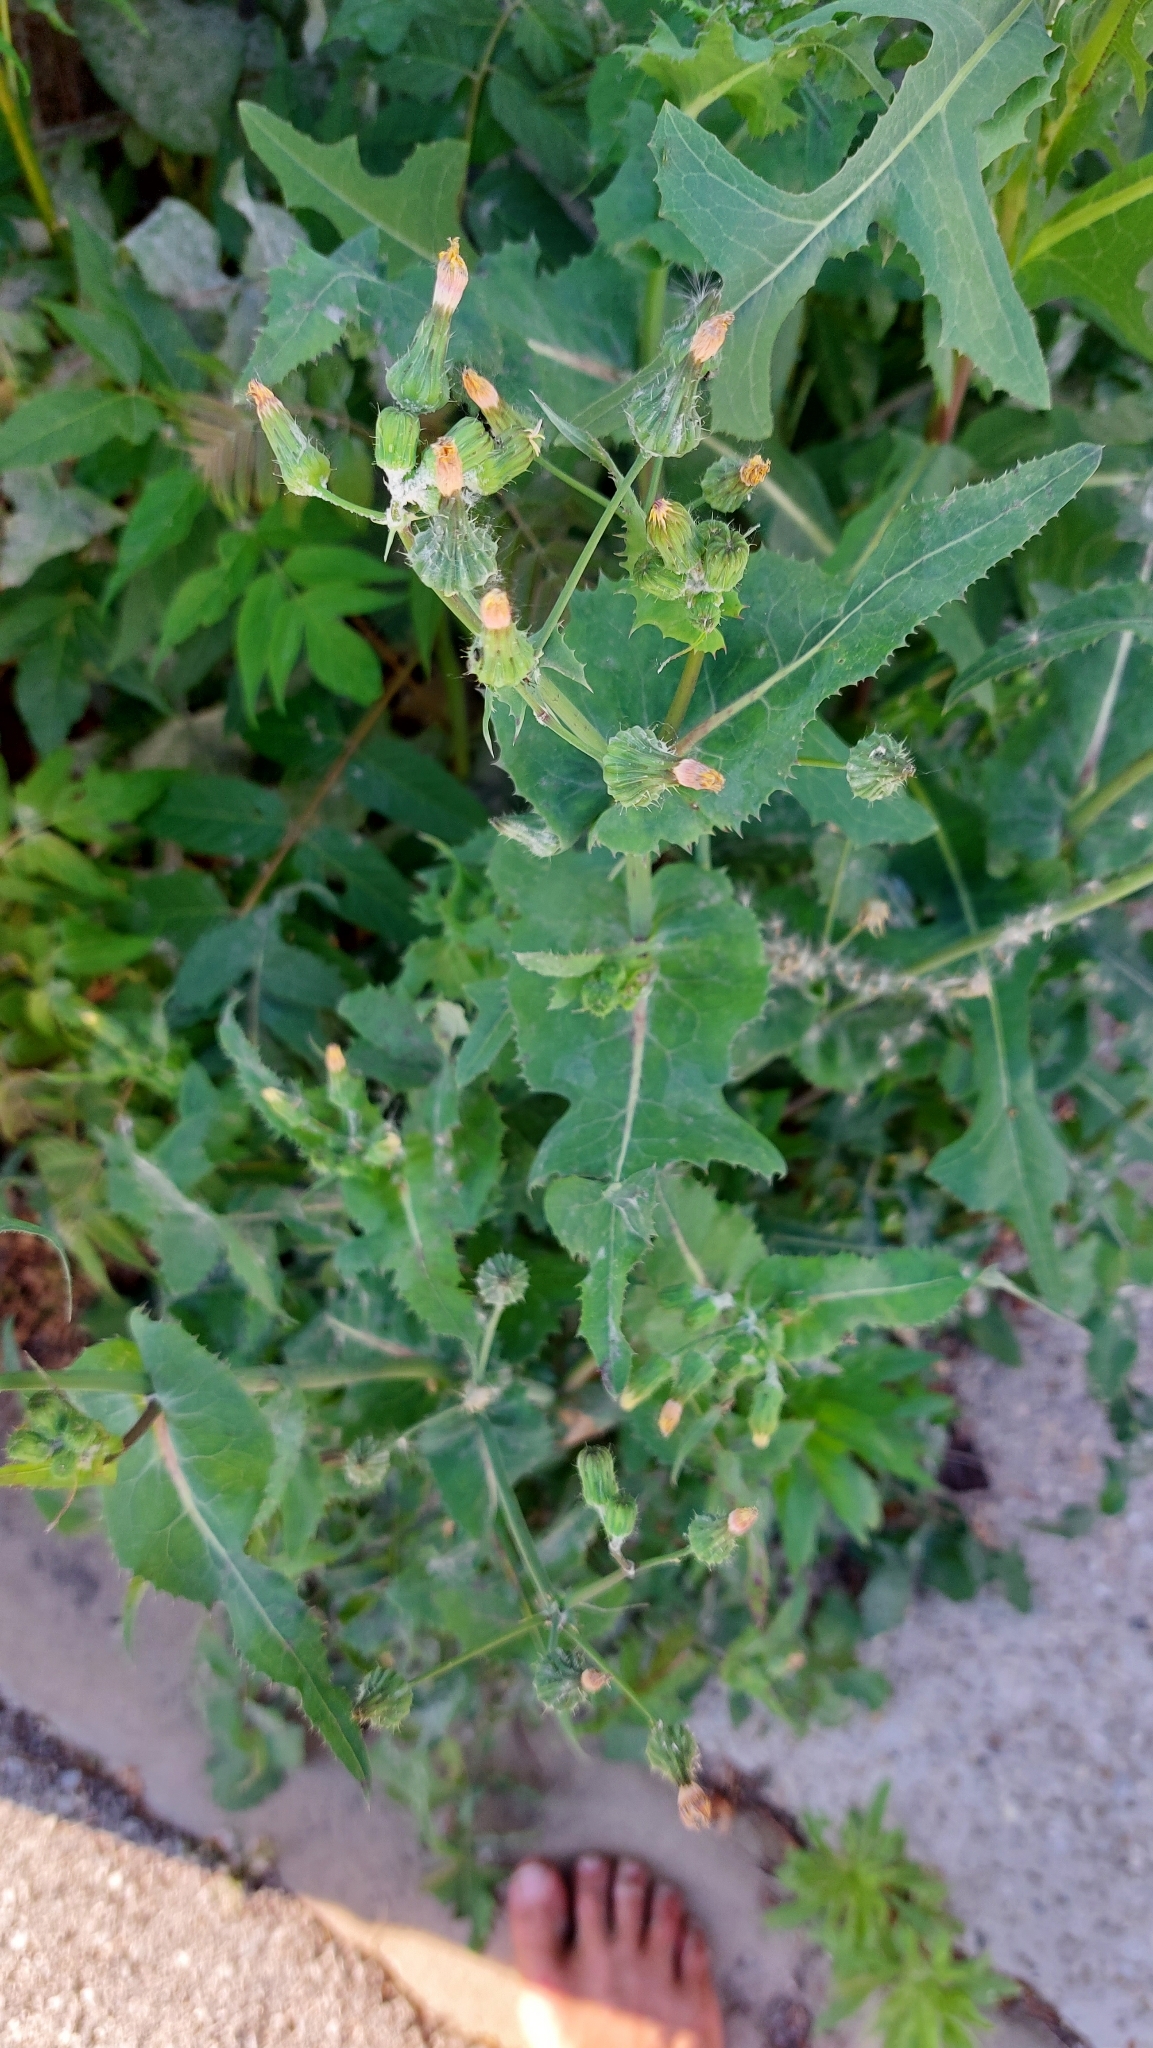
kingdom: Plantae
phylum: Tracheophyta
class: Magnoliopsida
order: Asterales
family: Asteraceae
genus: Sonchus
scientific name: Sonchus oleraceus
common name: Common sowthistle
